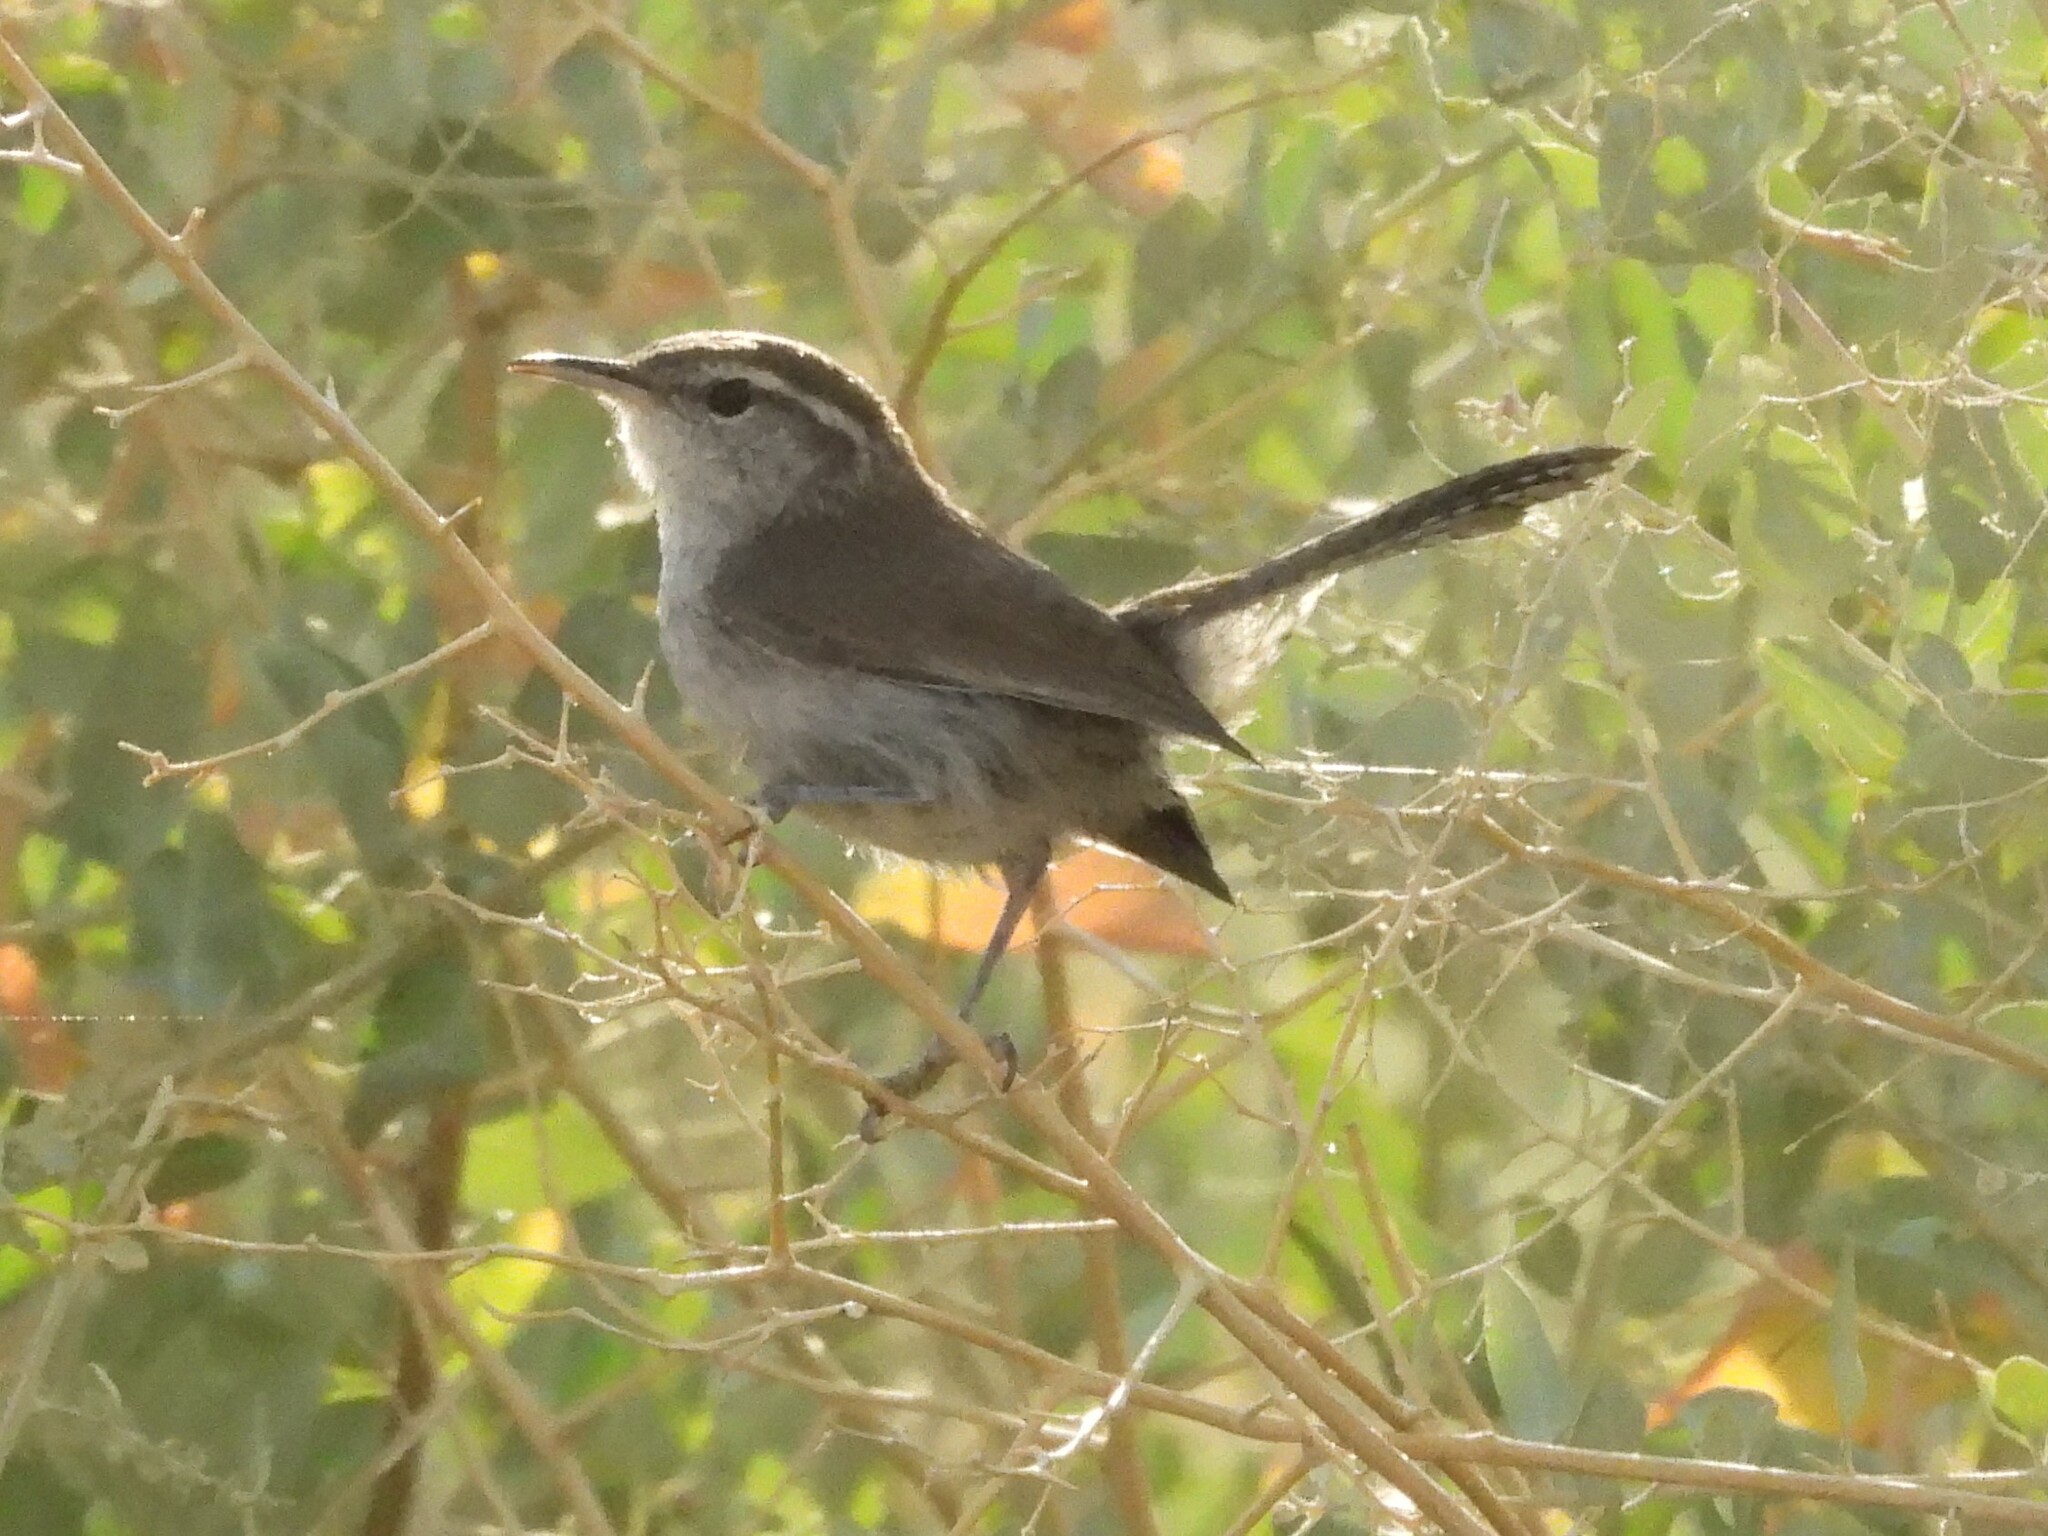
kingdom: Animalia
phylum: Chordata
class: Aves
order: Passeriformes
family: Troglodytidae
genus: Thryomanes
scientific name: Thryomanes bewickii
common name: Bewick's wren
